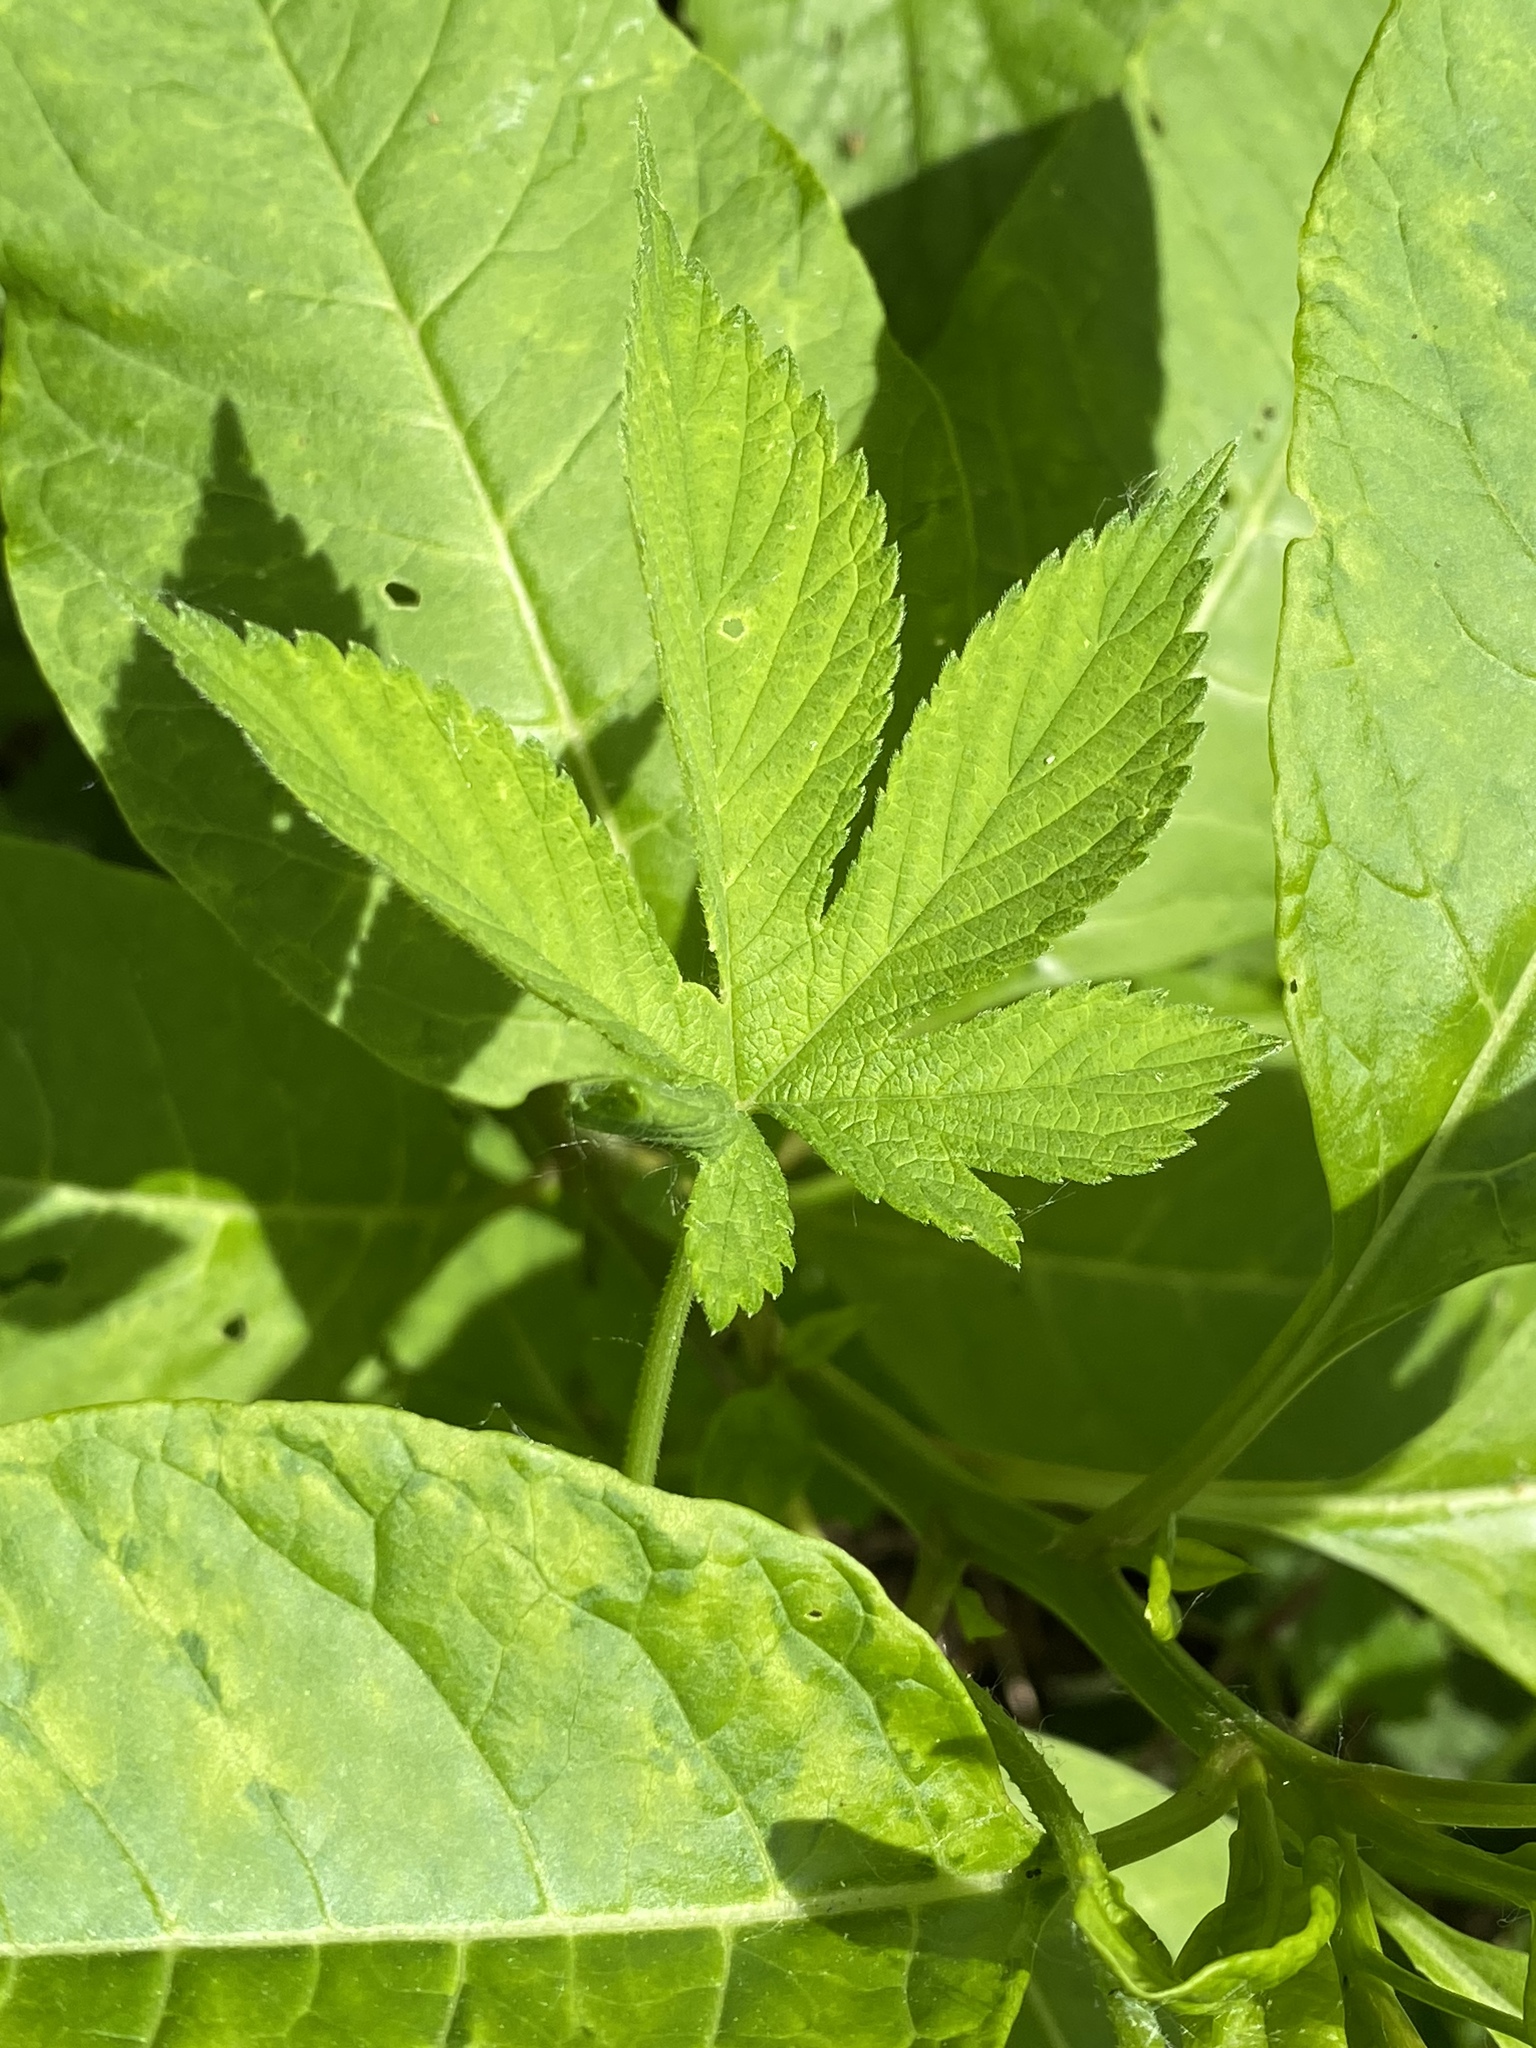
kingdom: Plantae
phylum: Tracheophyta
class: Magnoliopsida
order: Rosales
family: Cannabaceae
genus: Humulus
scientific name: Humulus scandens
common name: Japanese hop
